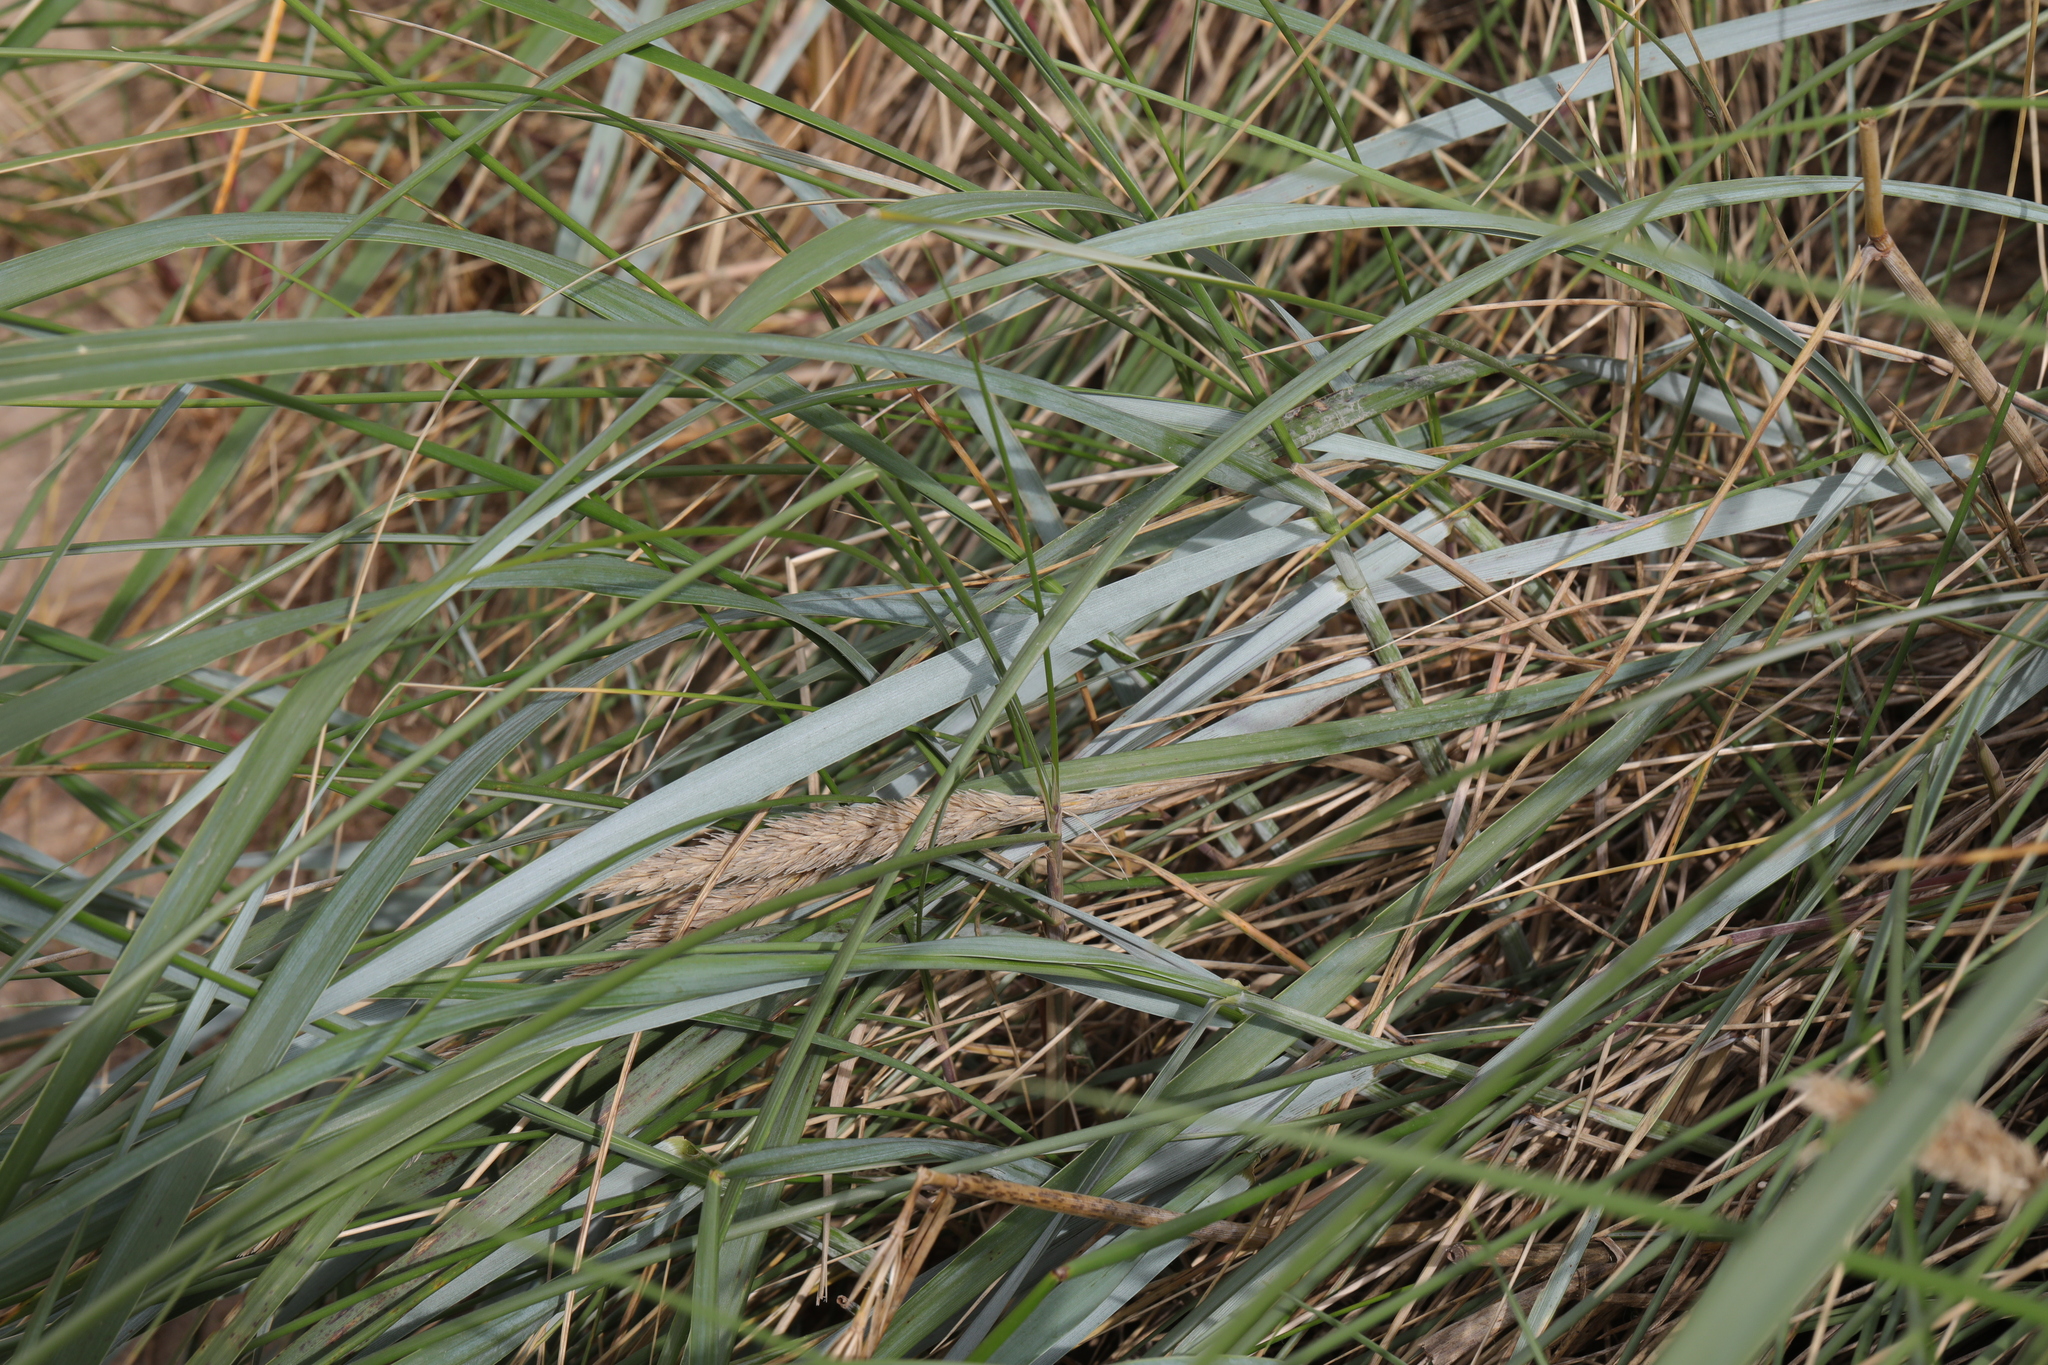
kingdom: Plantae
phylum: Tracheophyta
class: Liliopsida
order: Poales
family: Poaceae
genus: Leymus
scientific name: Leymus arenarius
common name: Lyme-grass
